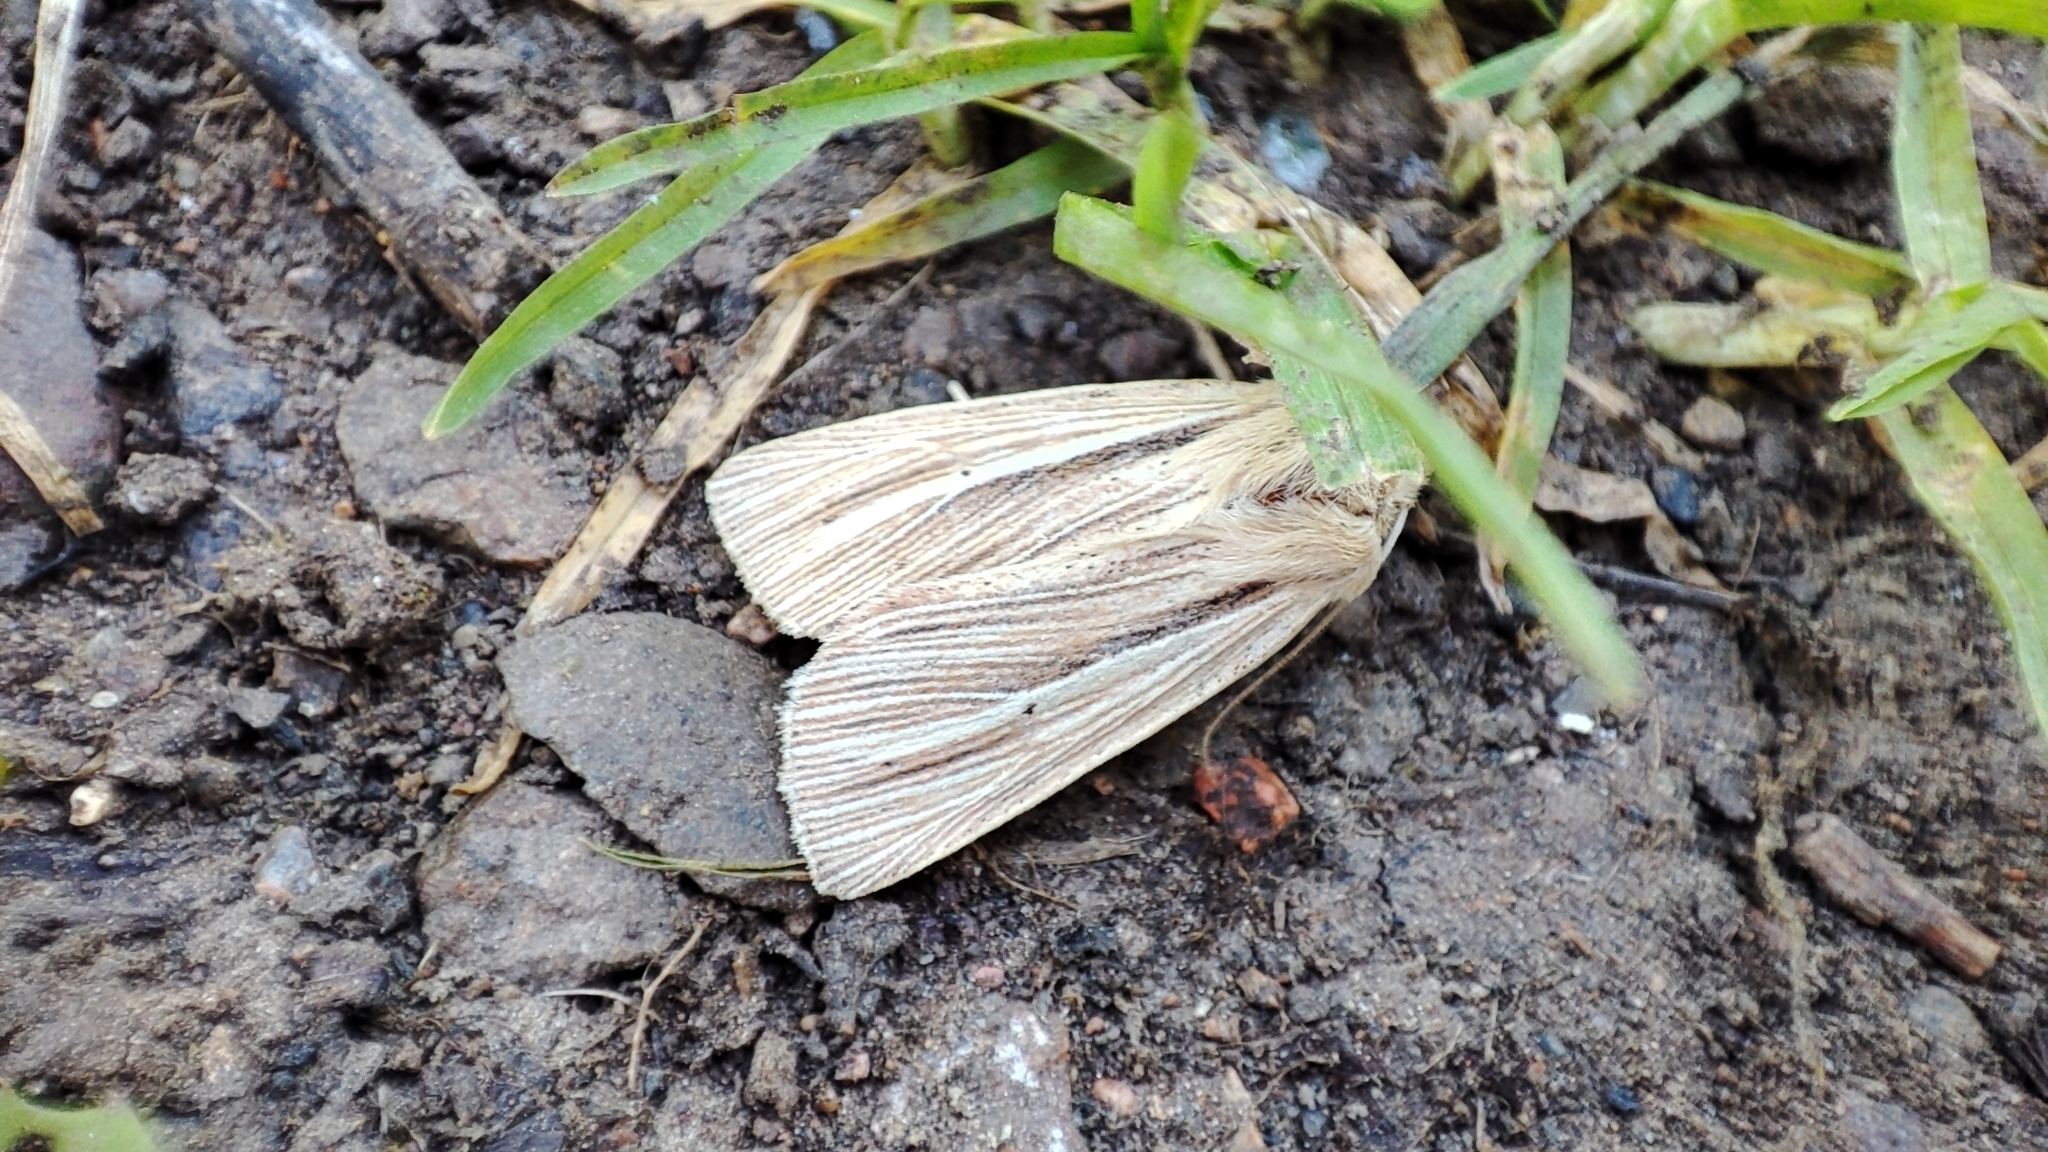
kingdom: Animalia
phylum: Arthropoda
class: Insecta
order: Lepidoptera
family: Noctuidae
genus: Mythimna
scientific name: Mythimna impura
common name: Smoky wainscot
